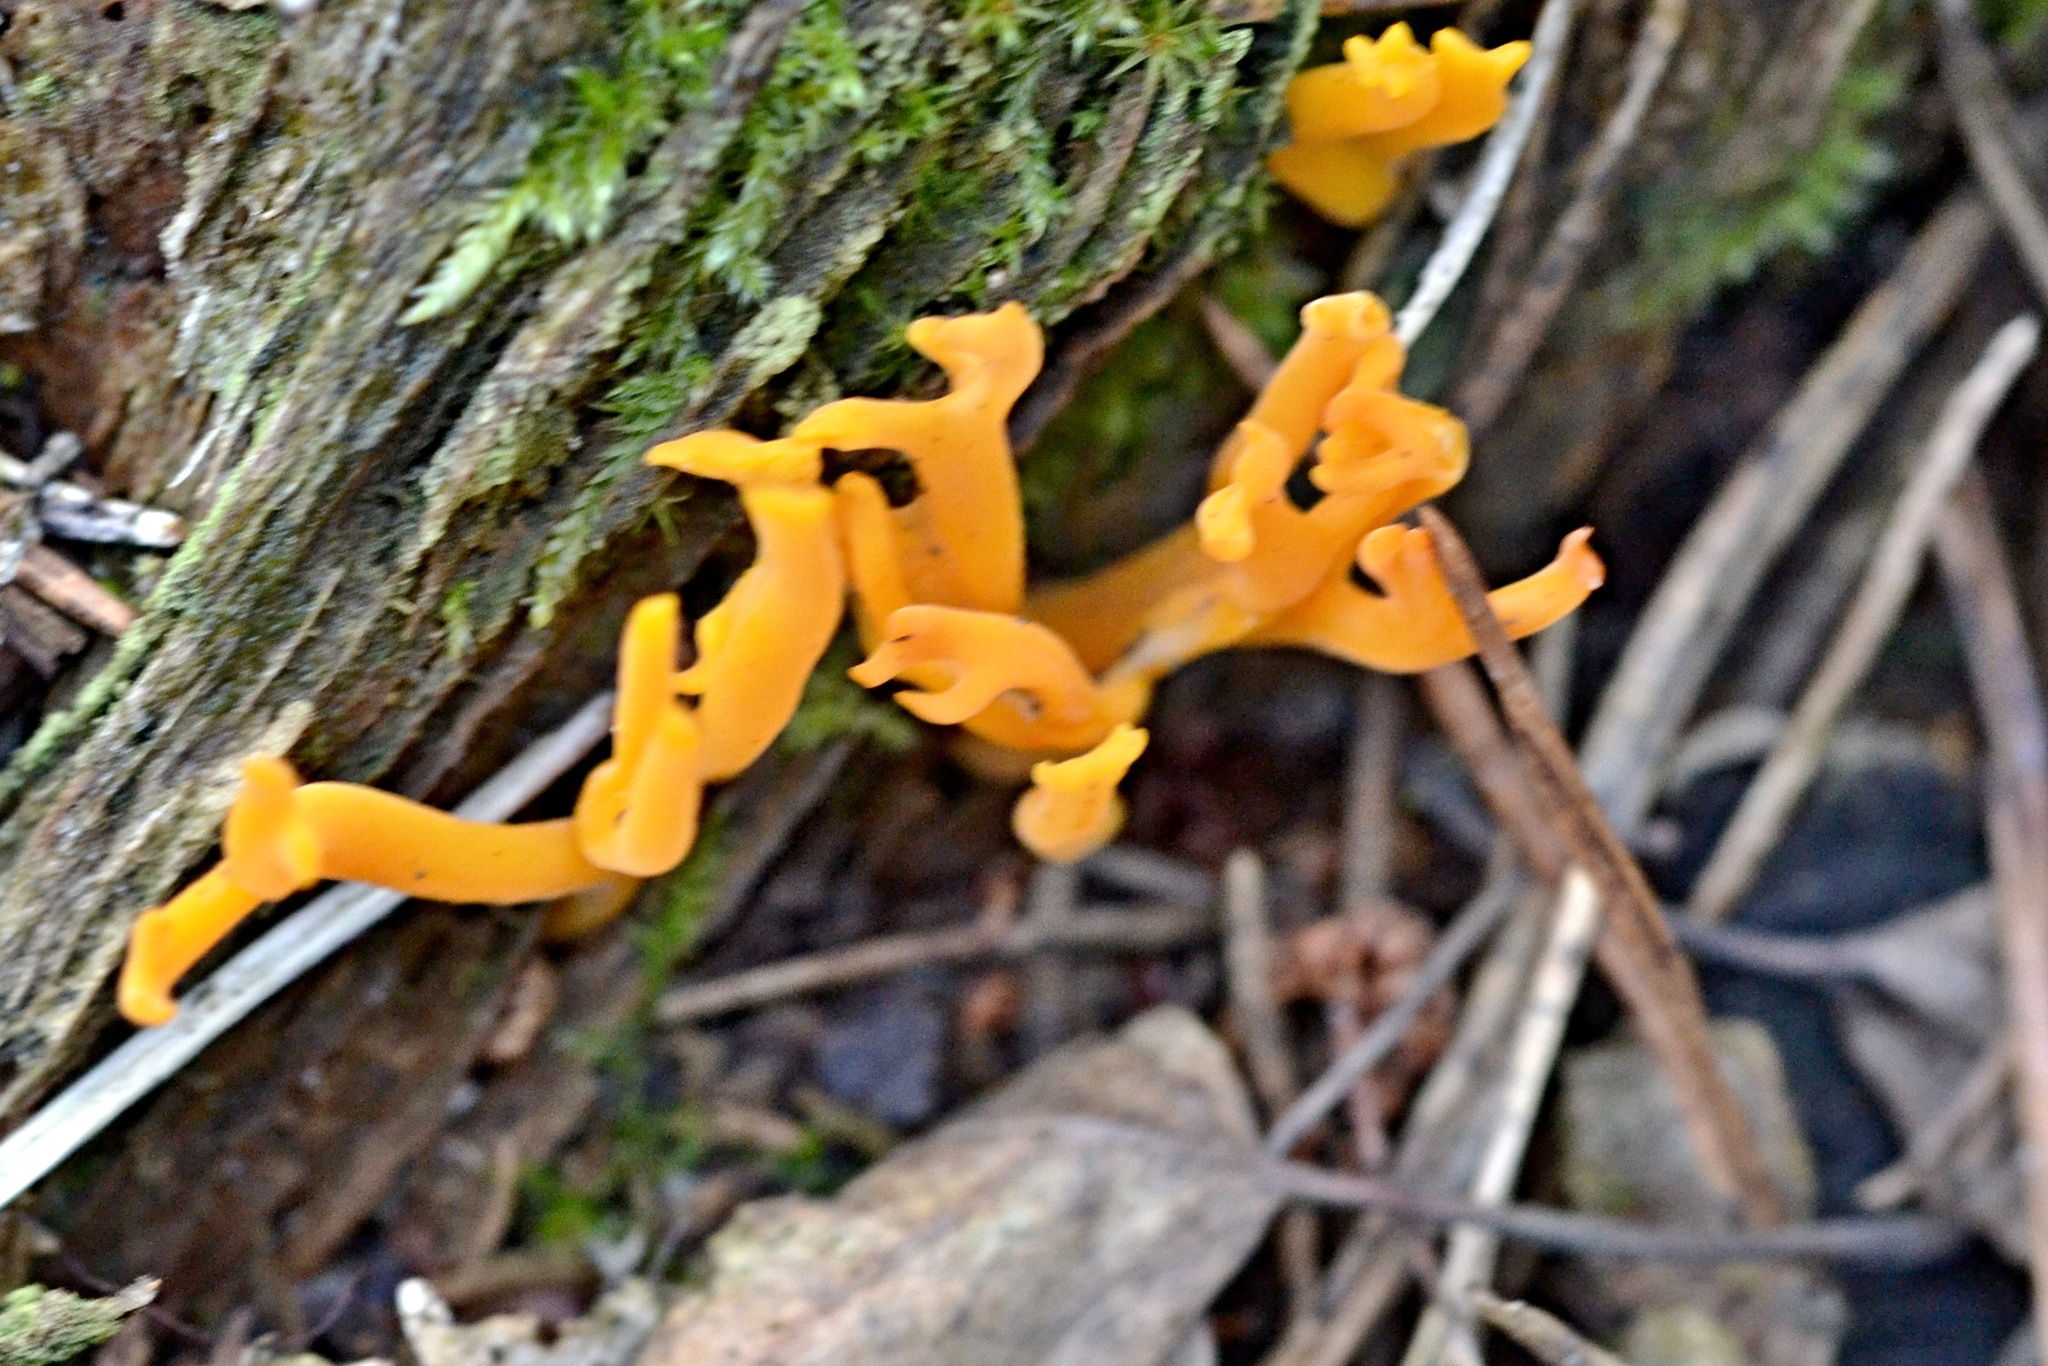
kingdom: Fungi
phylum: Basidiomycota
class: Dacrymycetes
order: Dacrymycetales
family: Dacrymycetaceae
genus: Calocera
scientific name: Calocera viscosa
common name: Yellow stagshorn
